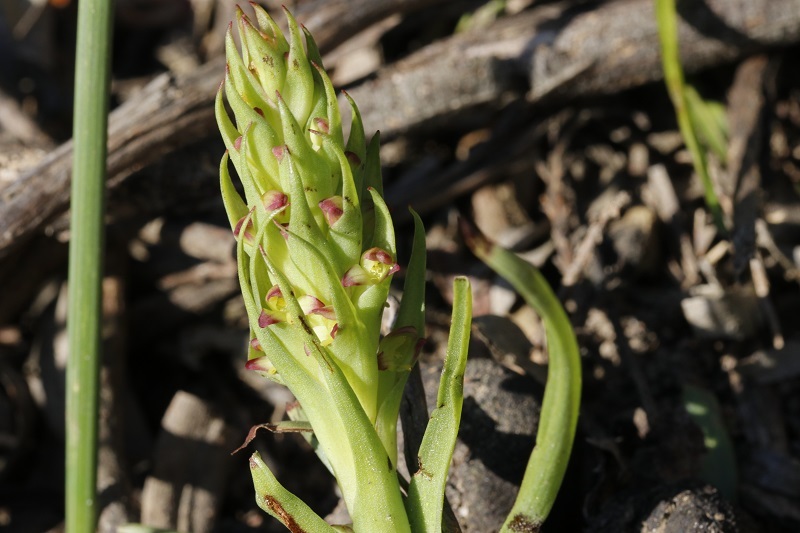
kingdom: Plantae
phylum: Tracheophyta
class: Liliopsida
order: Asparagales
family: Orchidaceae
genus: Disa
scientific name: Disa bracteata
